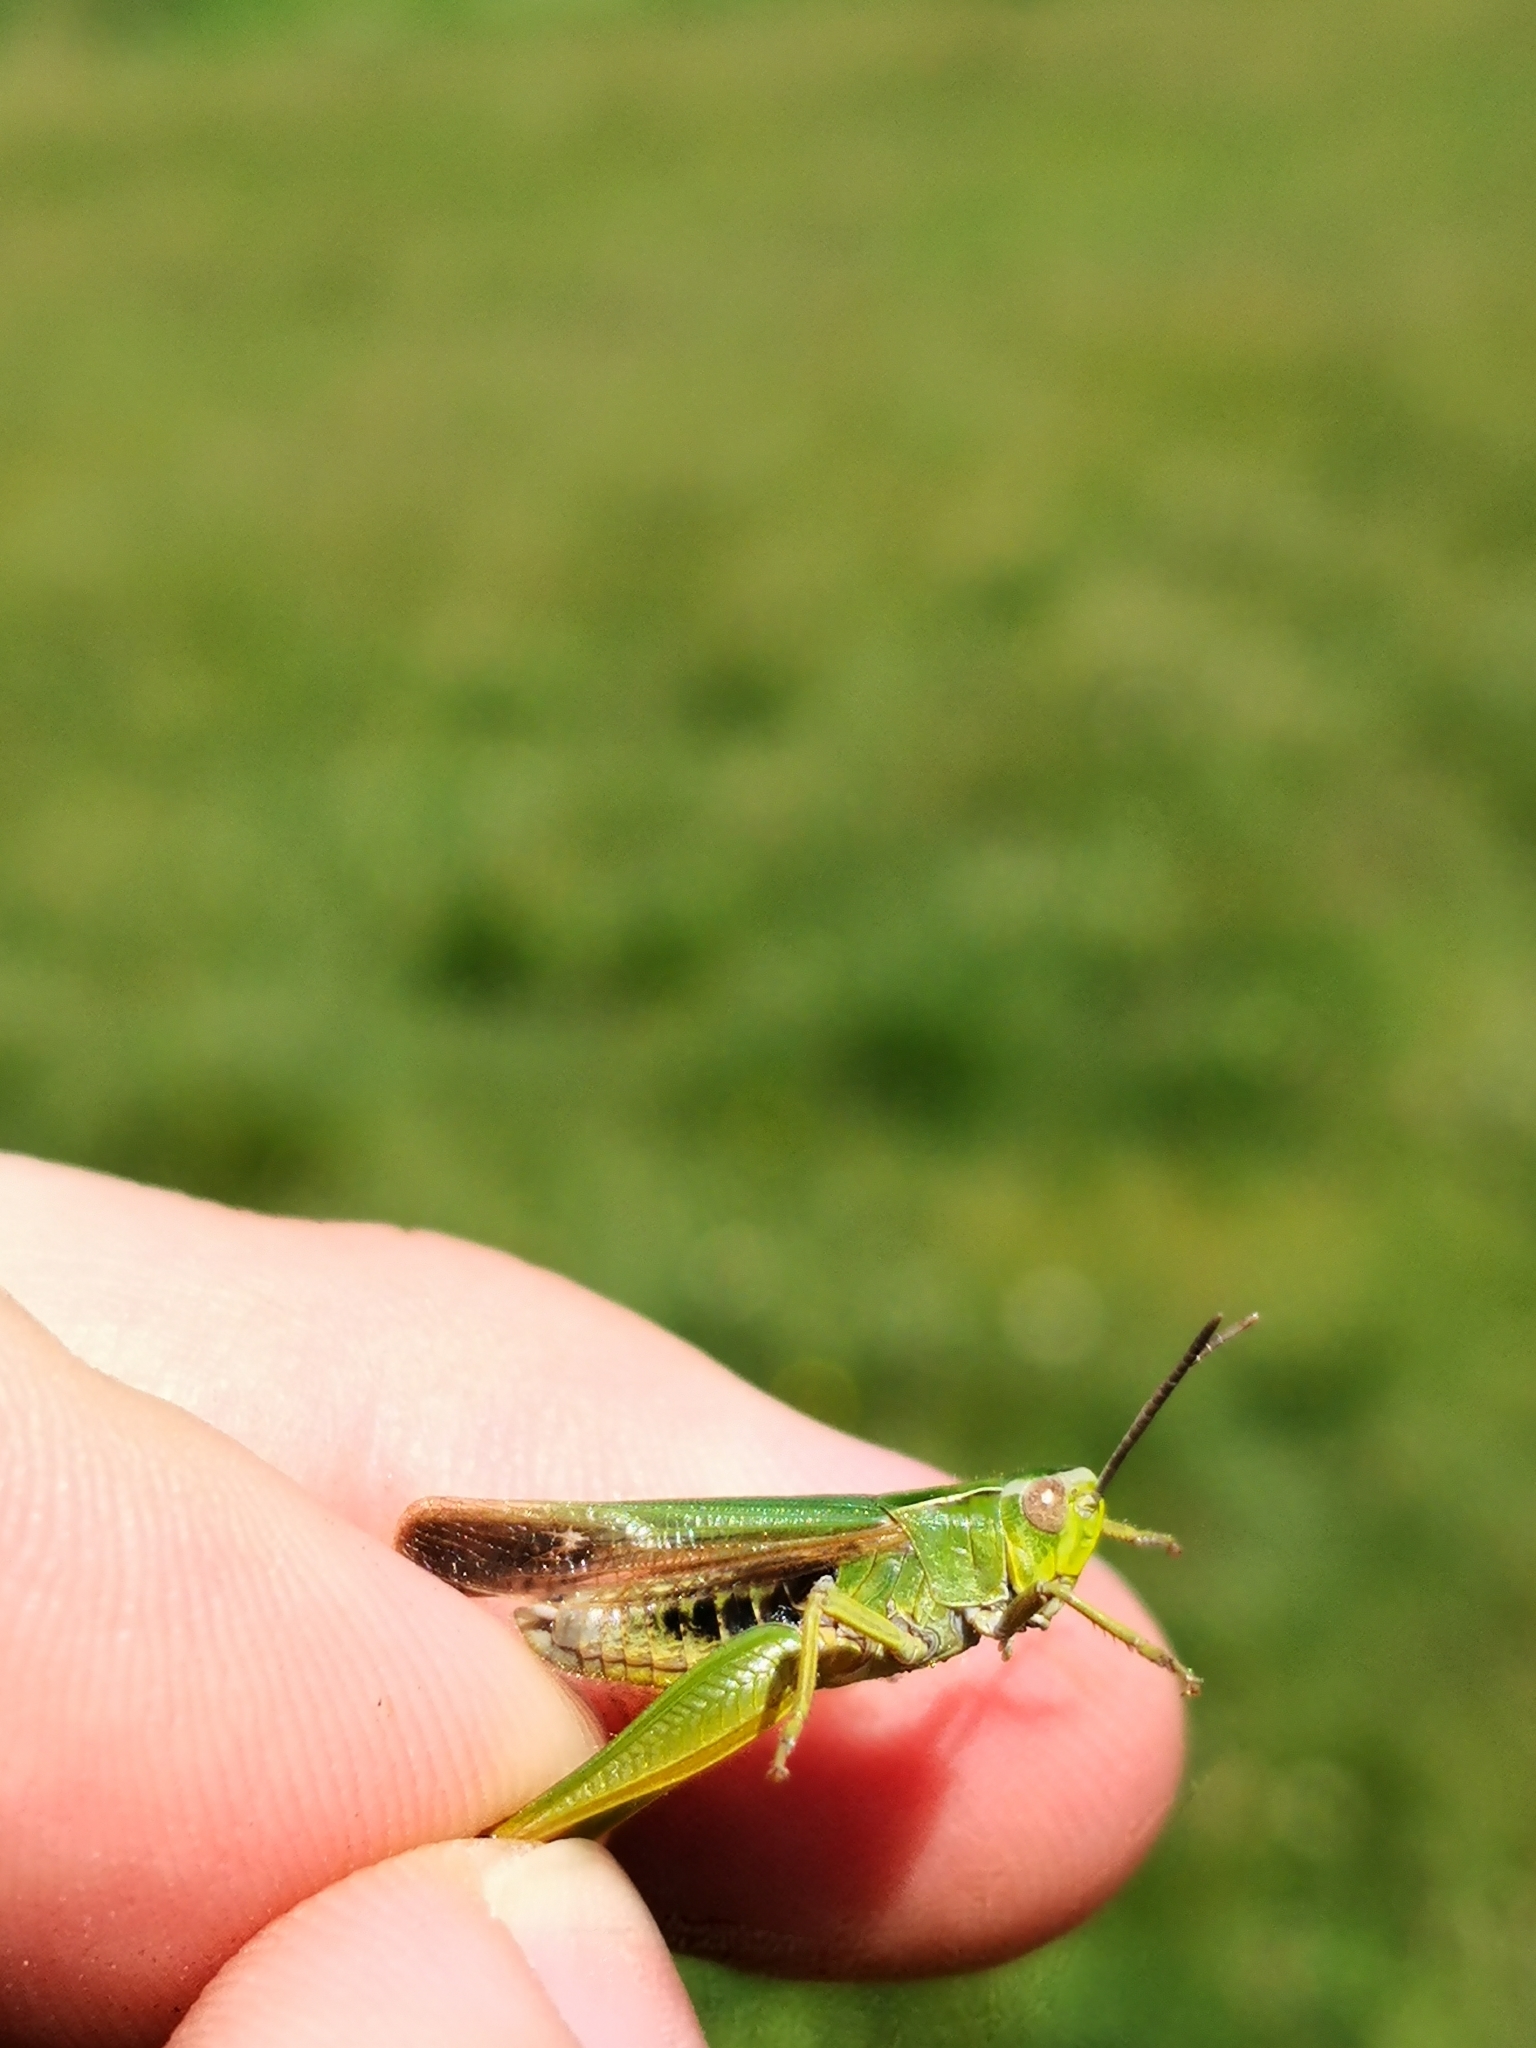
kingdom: Animalia
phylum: Arthropoda
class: Insecta
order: Orthoptera
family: Acrididae
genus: Omocestus
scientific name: Omocestus viridulus
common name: Common green grasshopper
